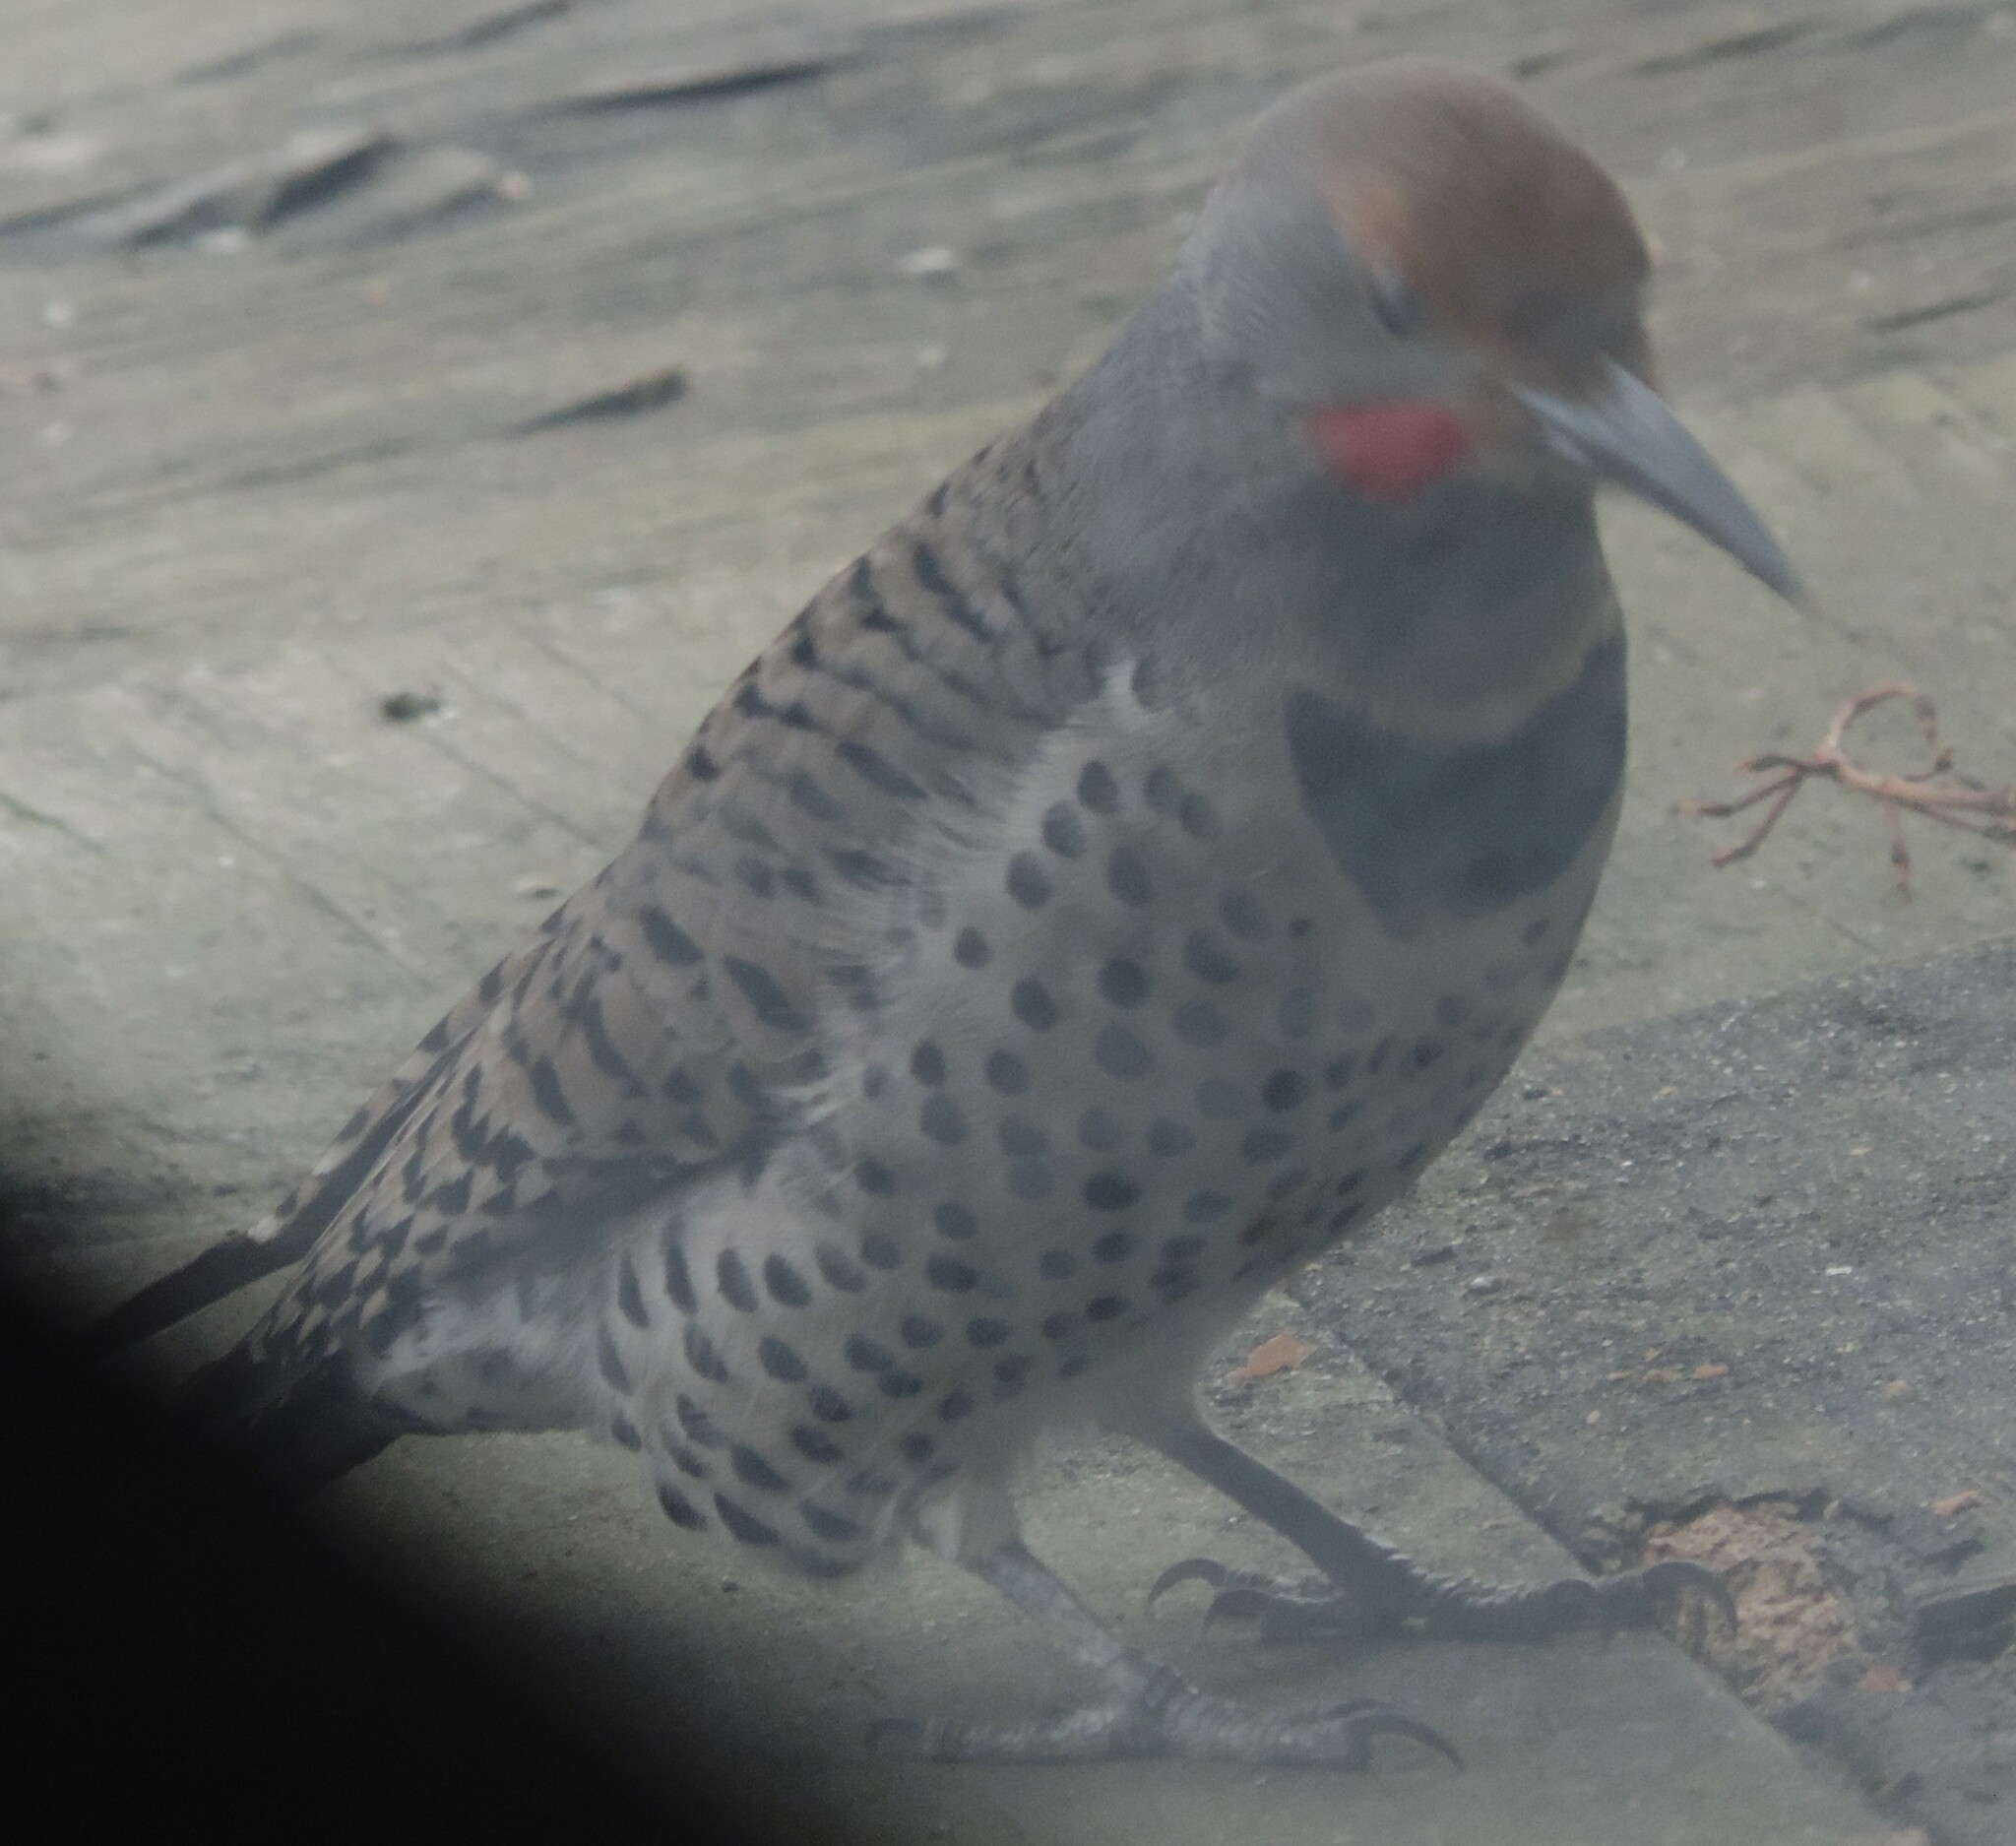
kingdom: Animalia
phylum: Chordata
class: Aves
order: Piciformes
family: Picidae
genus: Colaptes
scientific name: Colaptes
